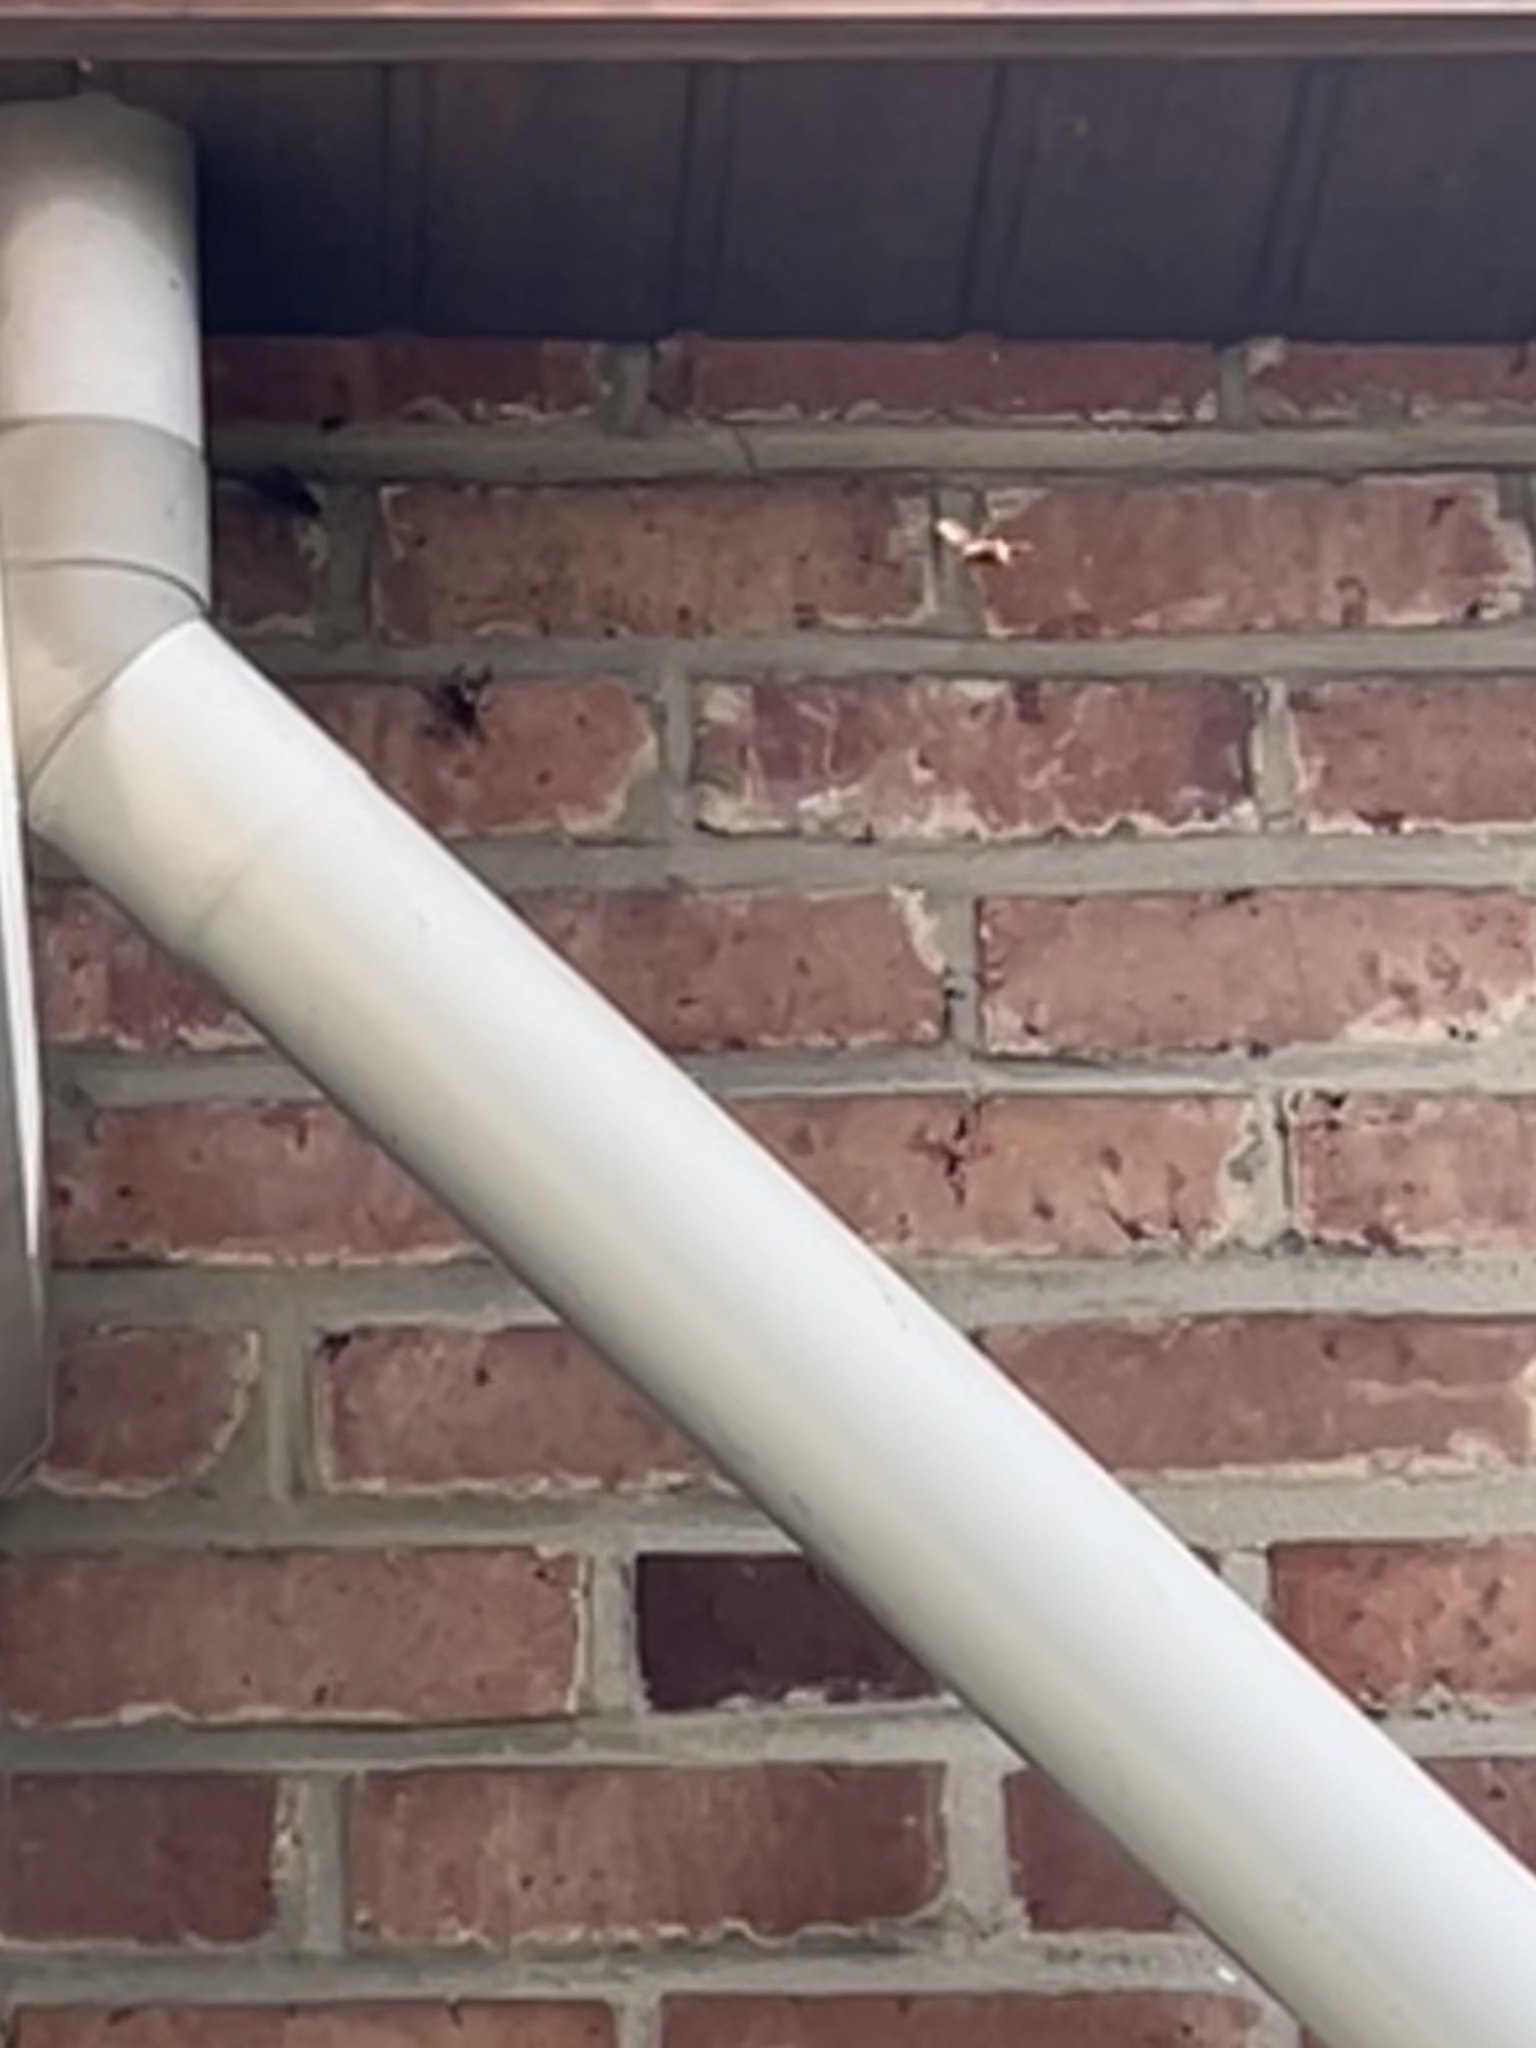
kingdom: Animalia
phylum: Arthropoda
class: Insecta
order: Hymenoptera
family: Vespidae
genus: Vespa
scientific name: Vespa crabro
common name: Hornet
